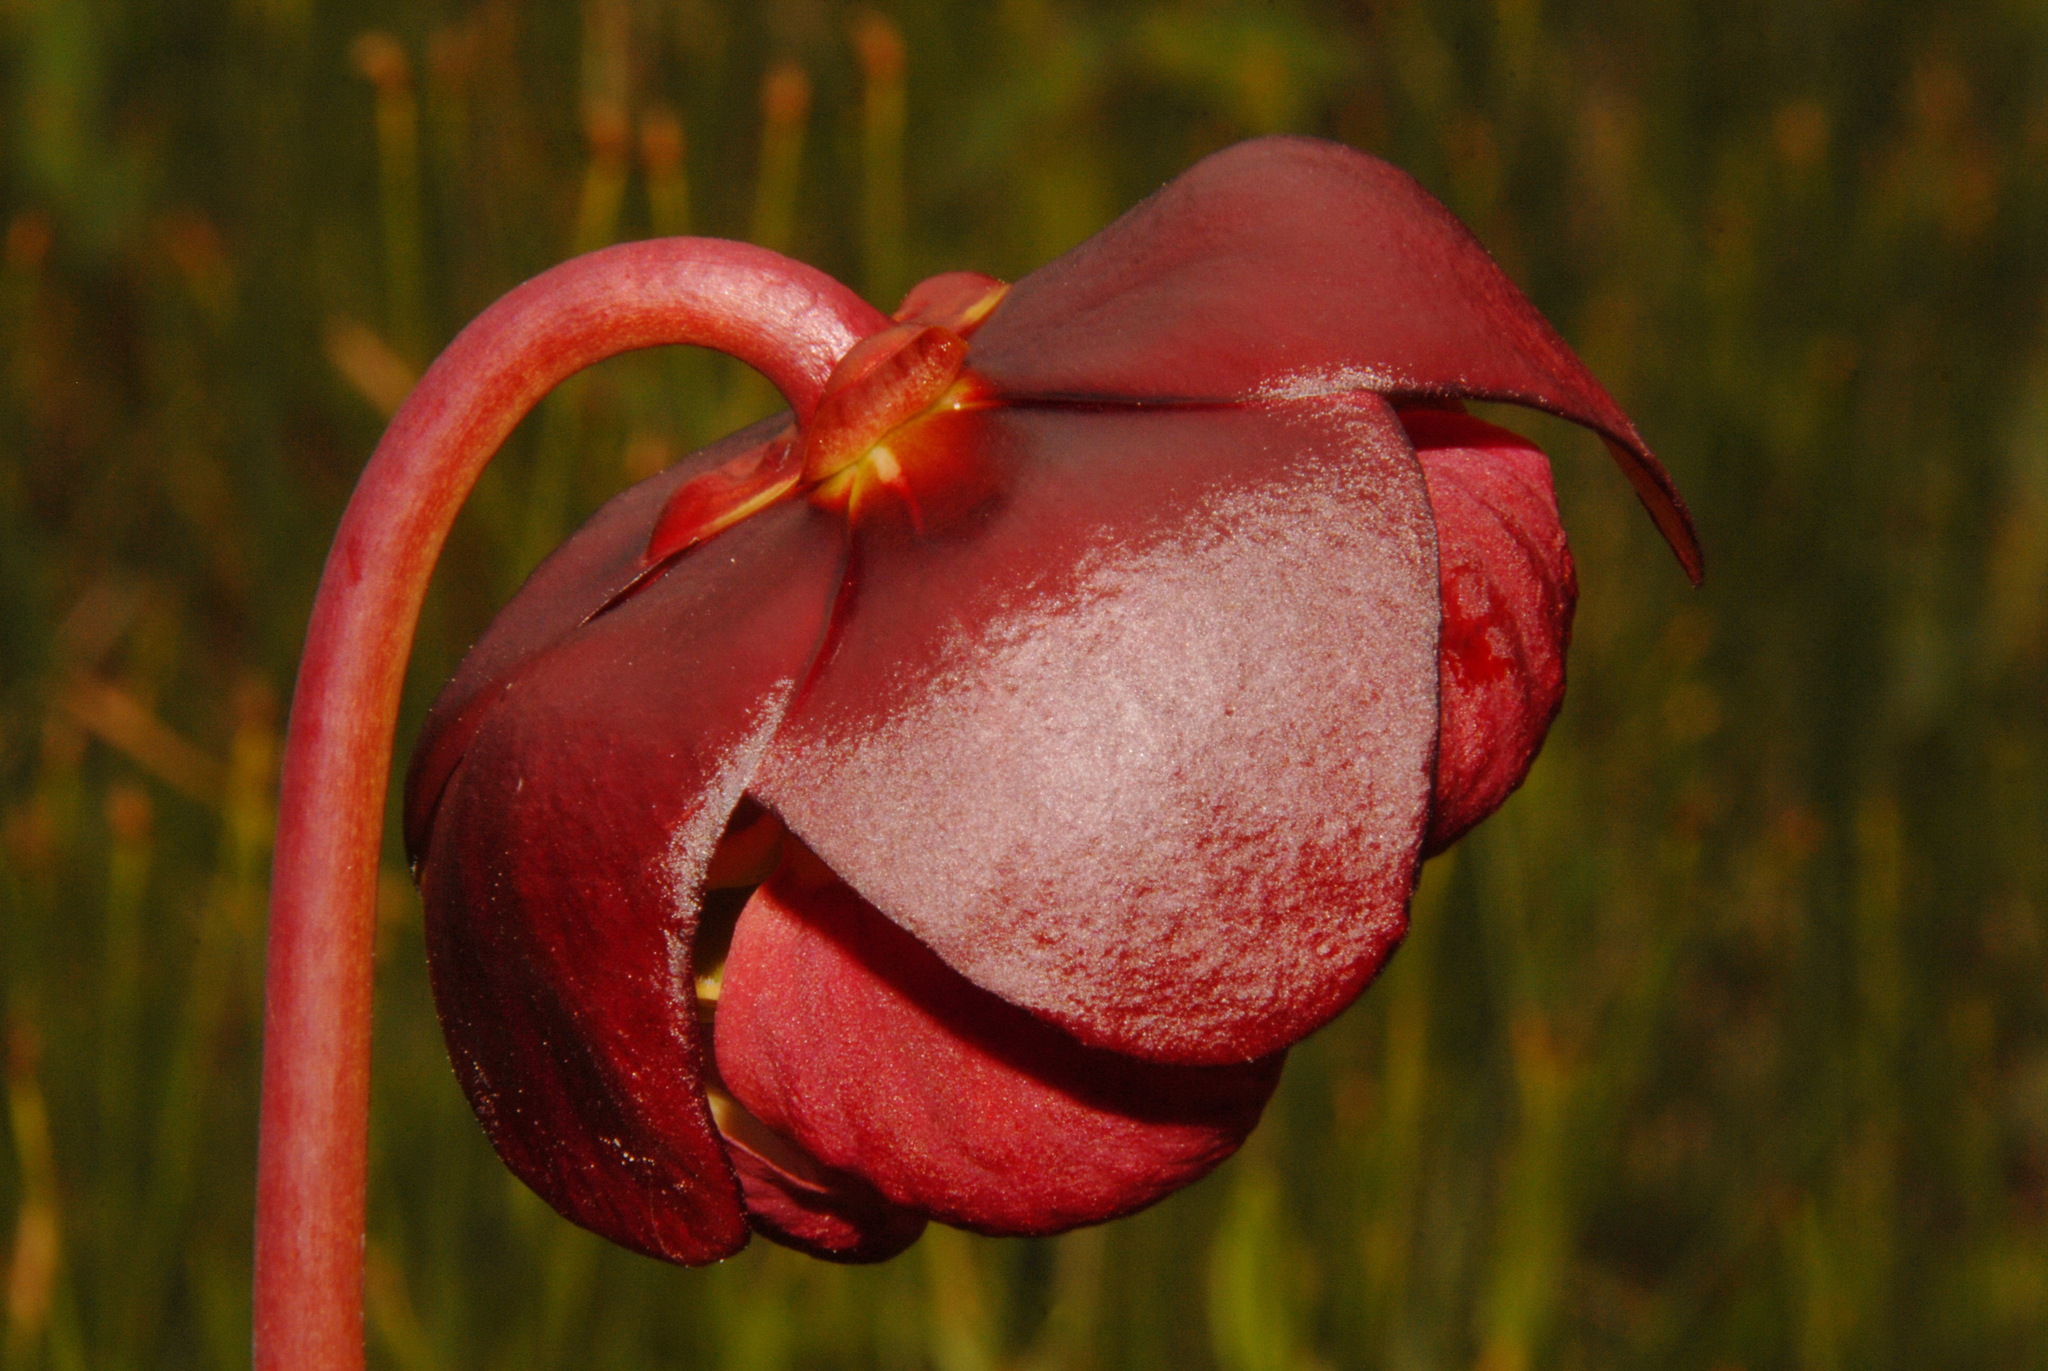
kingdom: Plantae
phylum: Tracheophyta
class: Magnoliopsida
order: Ericales
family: Sarraceniaceae
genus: Sarracenia
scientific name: Sarracenia purpurea
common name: Pitcherplant
